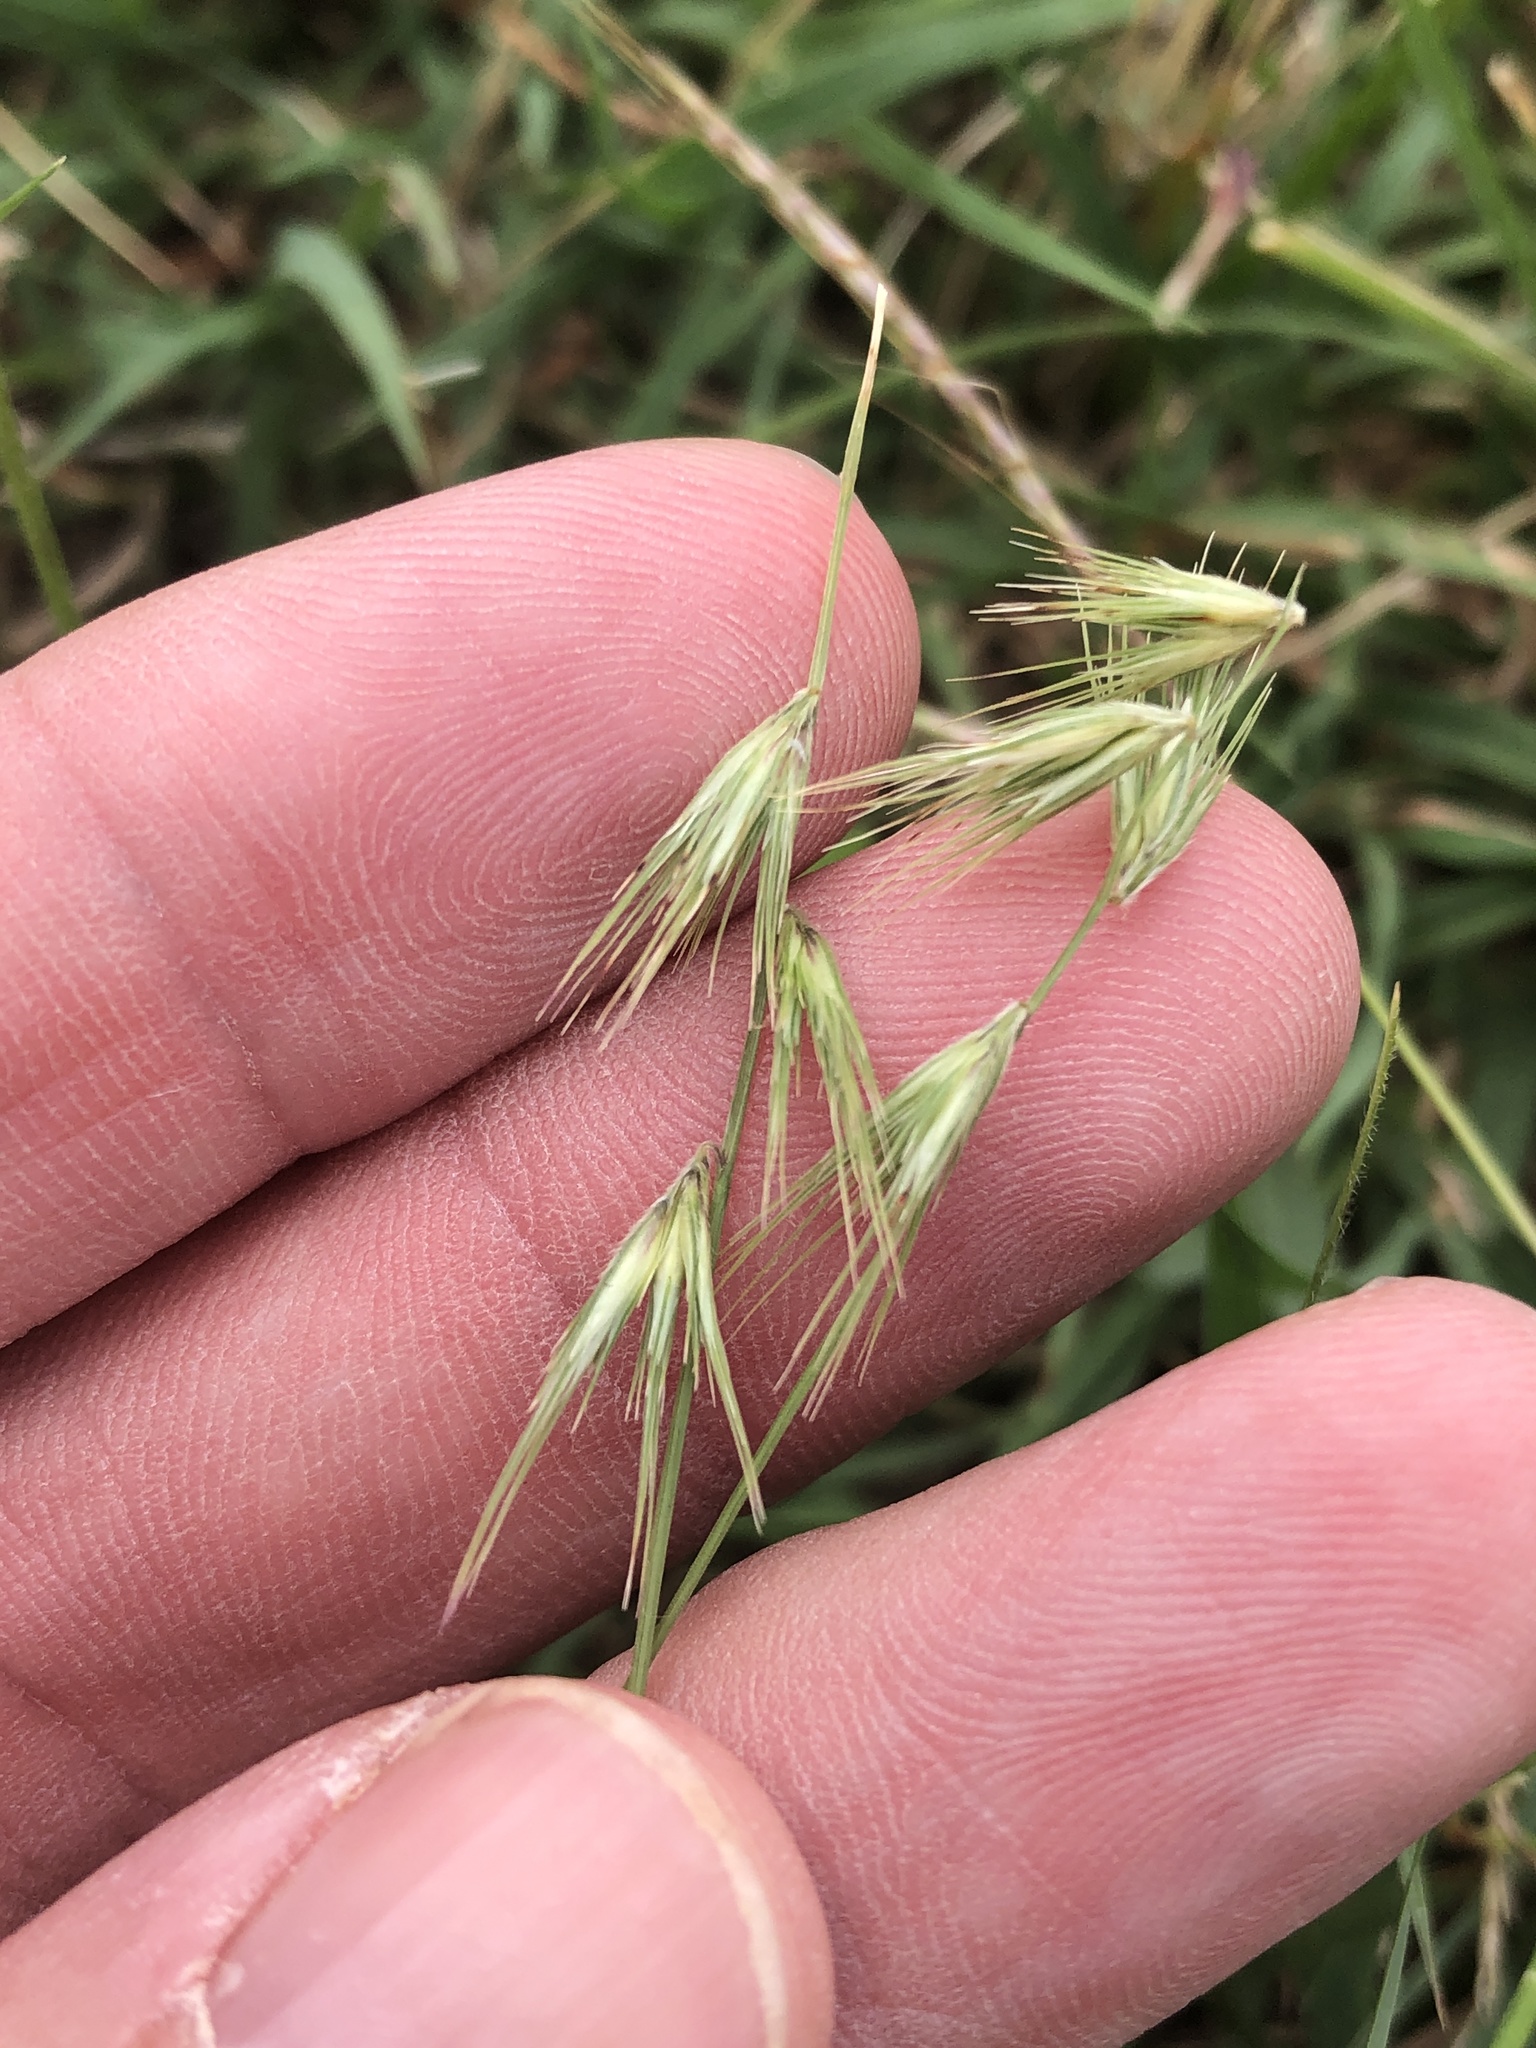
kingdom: Plantae
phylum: Tracheophyta
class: Liliopsida
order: Poales
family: Poaceae
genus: Bouteloua
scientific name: Bouteloua rigidiseta
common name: Texas grama
